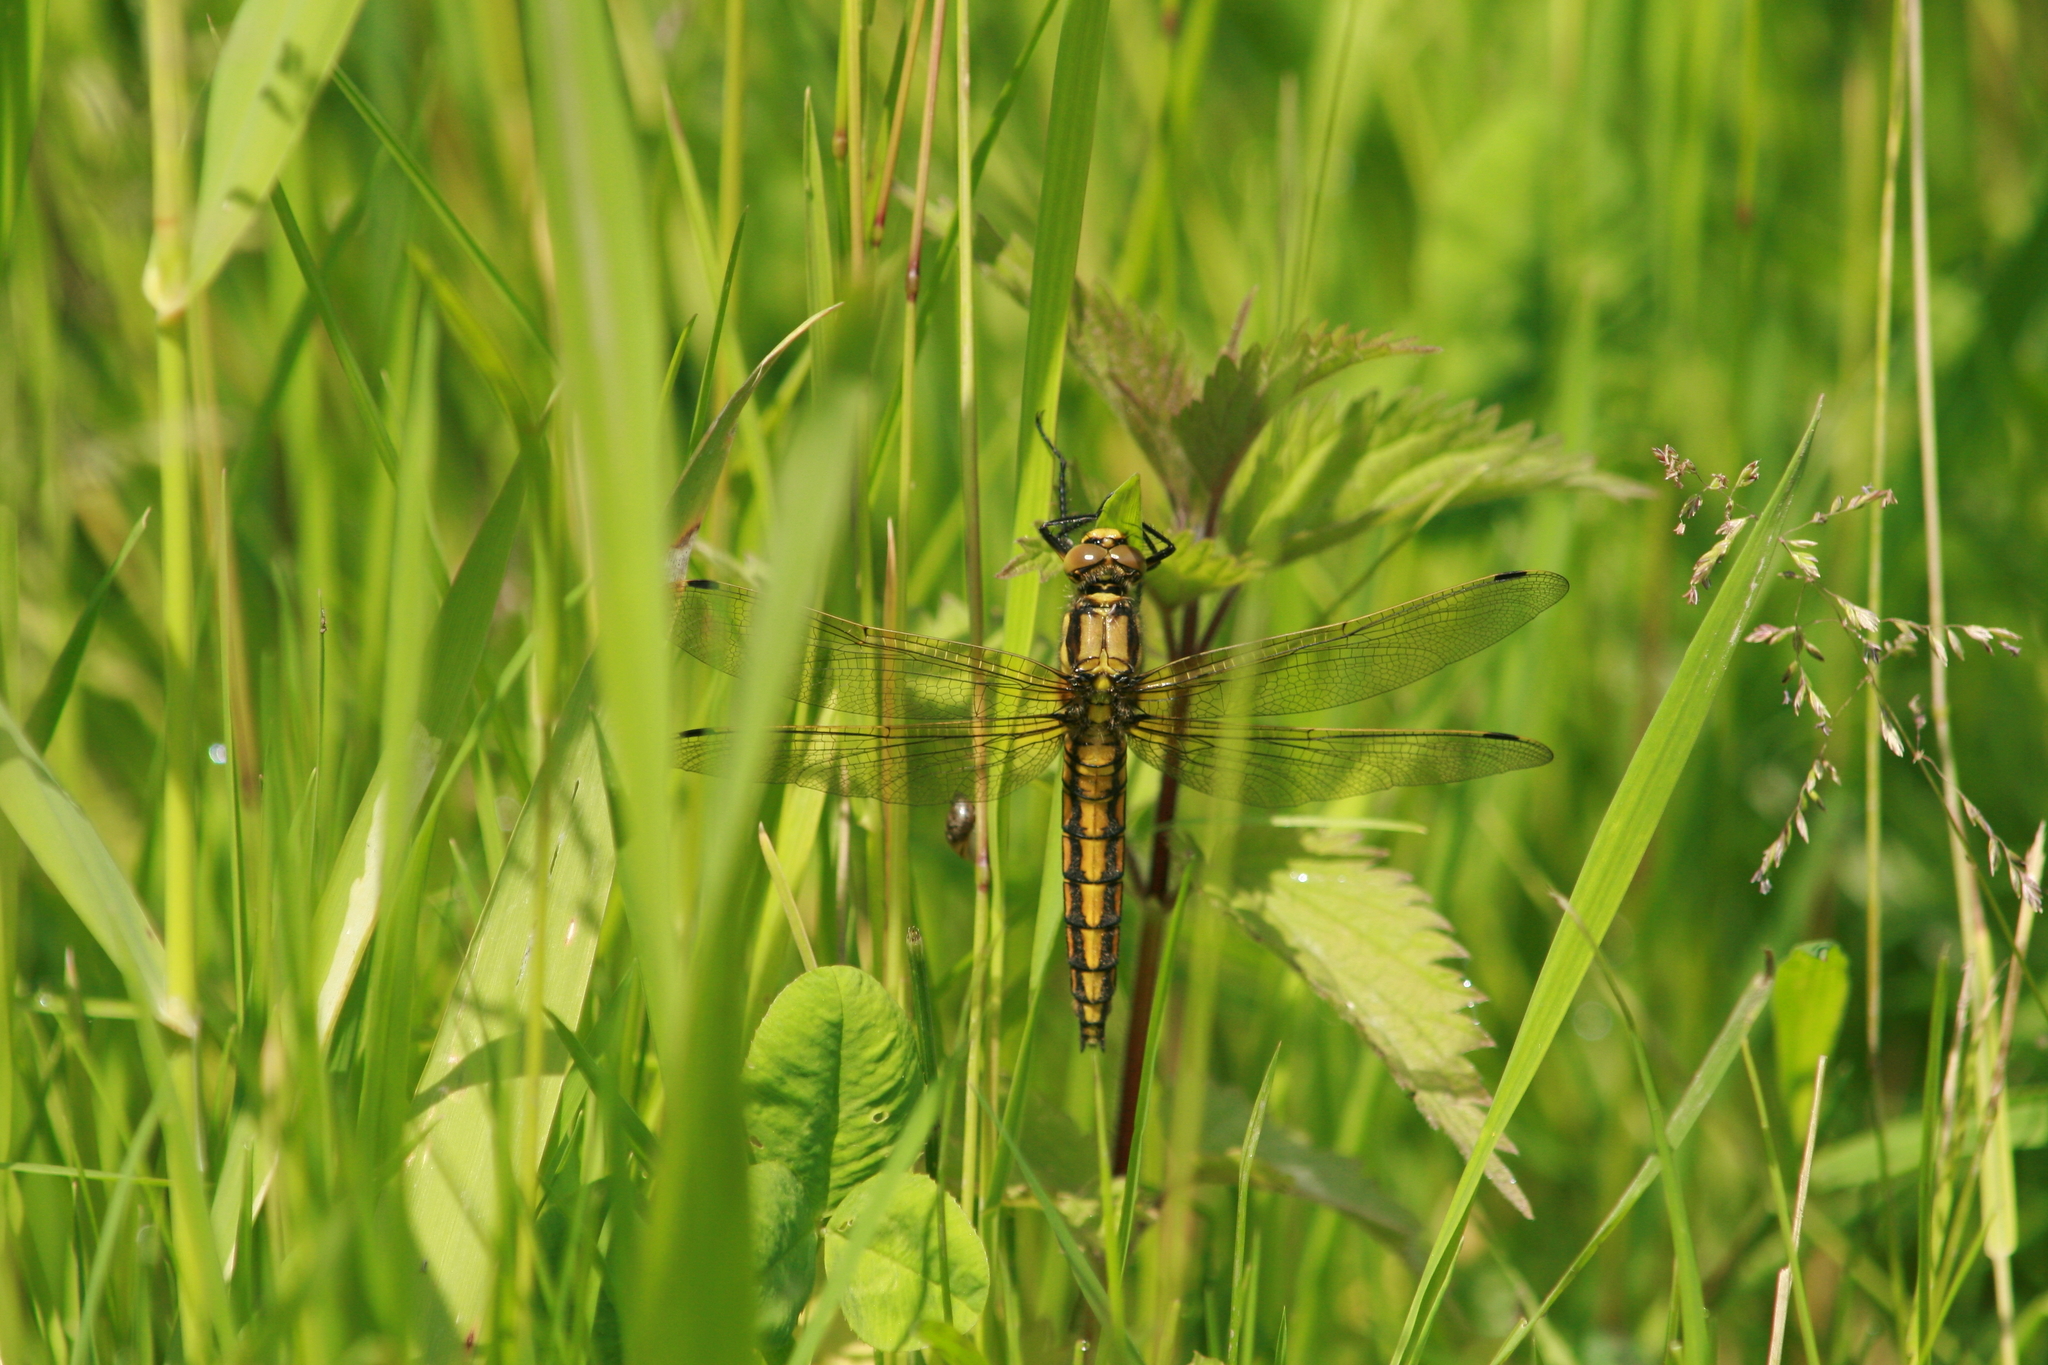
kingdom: Animalia
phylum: Arthropoda
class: Insecta
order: Odonata
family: Libellulidae
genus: Orthetrum
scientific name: Orthetrum cancellatum
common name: Black-tailed skimmer
